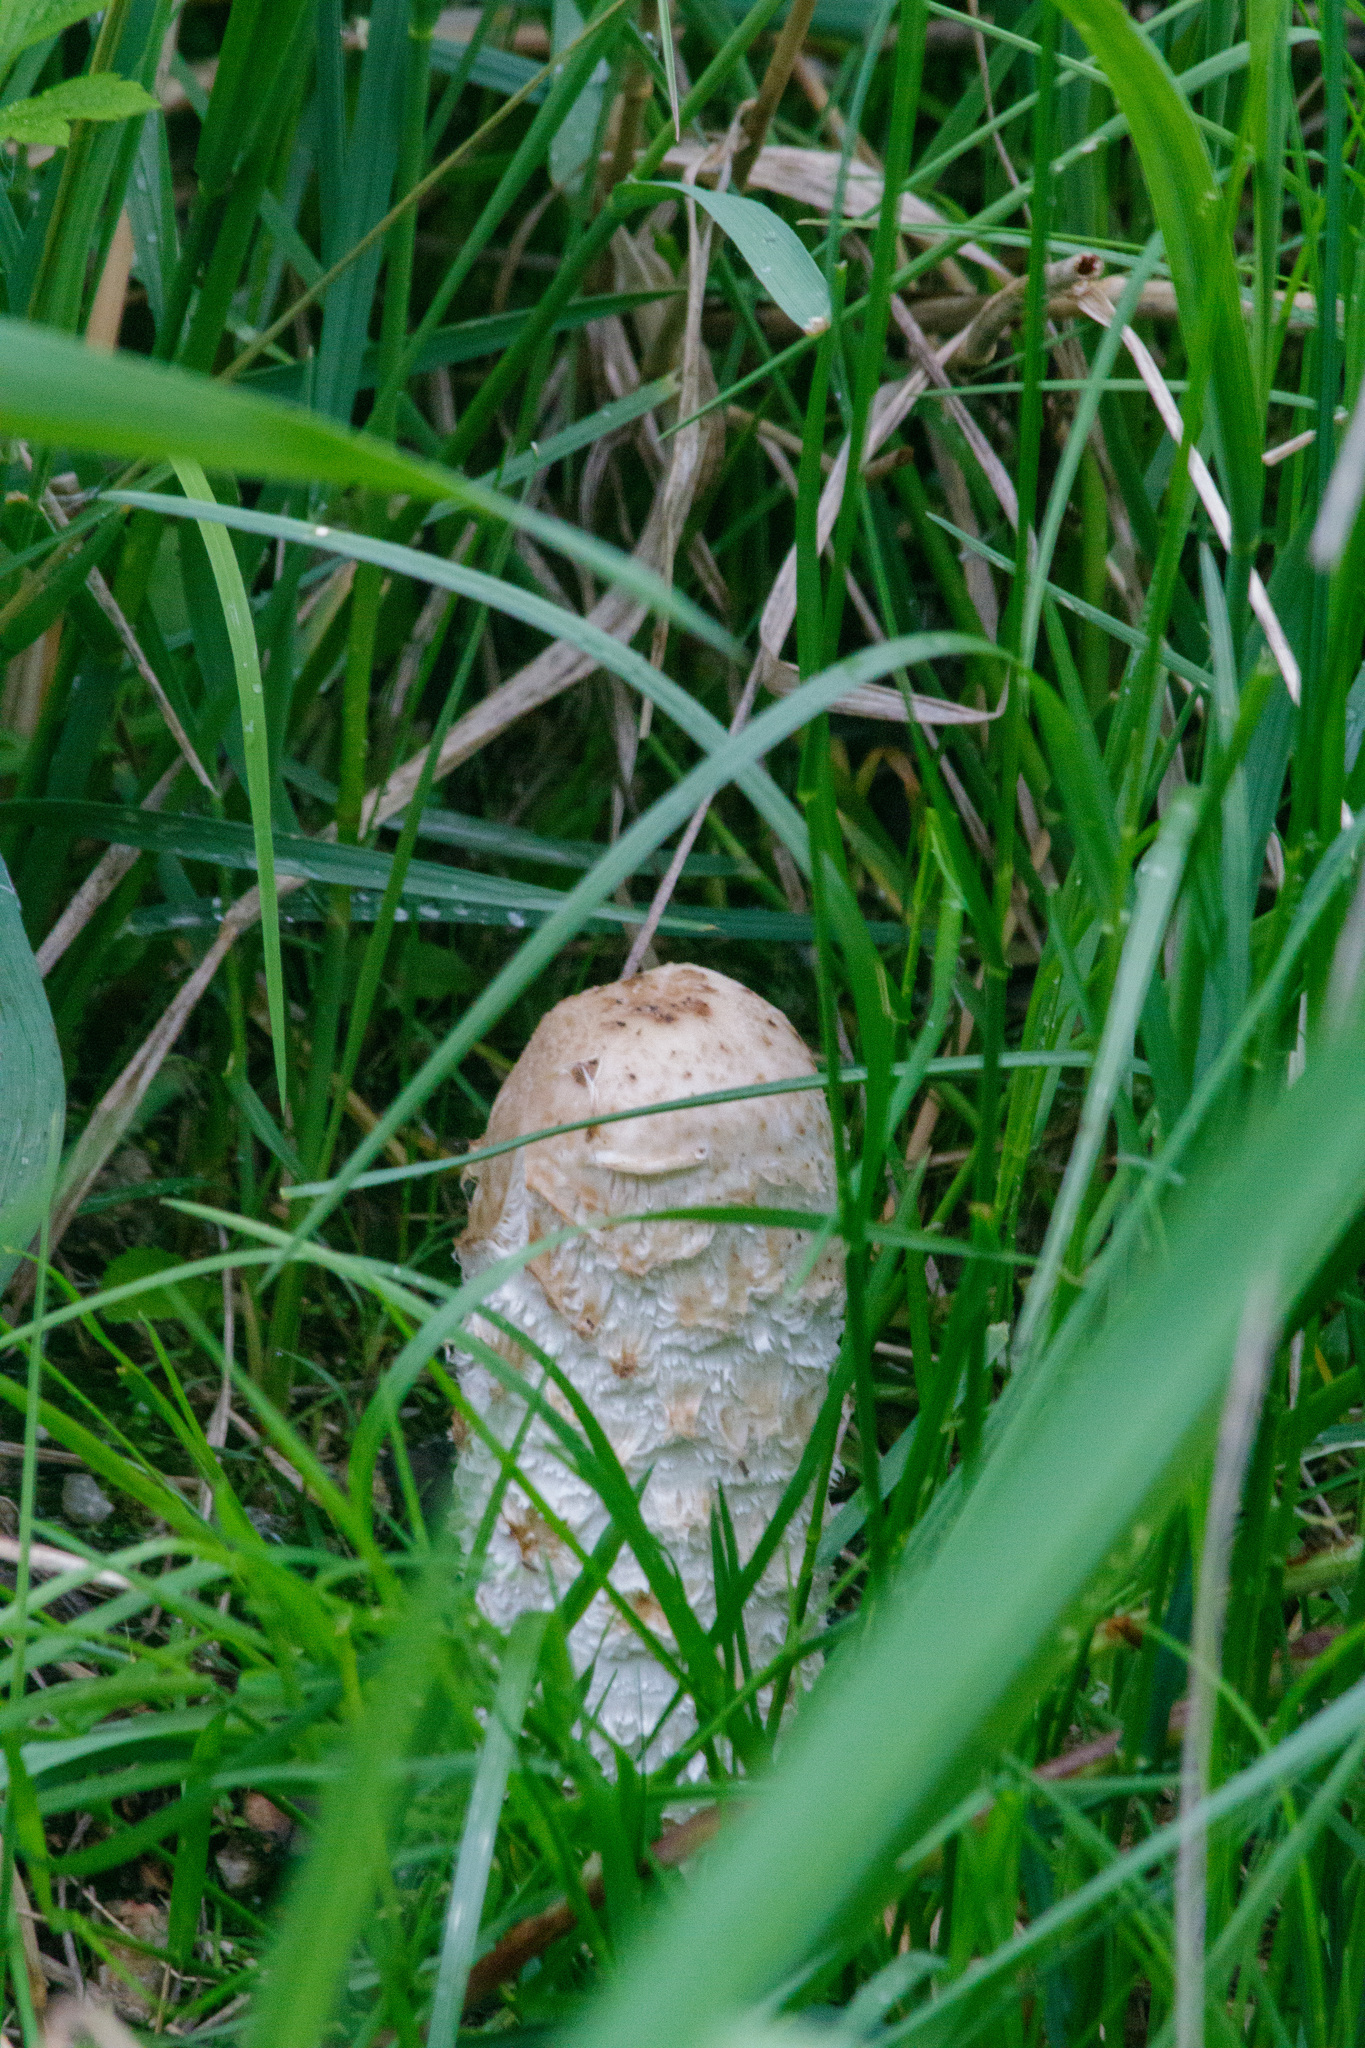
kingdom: Fungi
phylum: Basidiomycota
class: Agaricomycetes
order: Agaricales
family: Agaricaceae
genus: Coprinus
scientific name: Coprinus comatus
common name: Lawyer's wig
